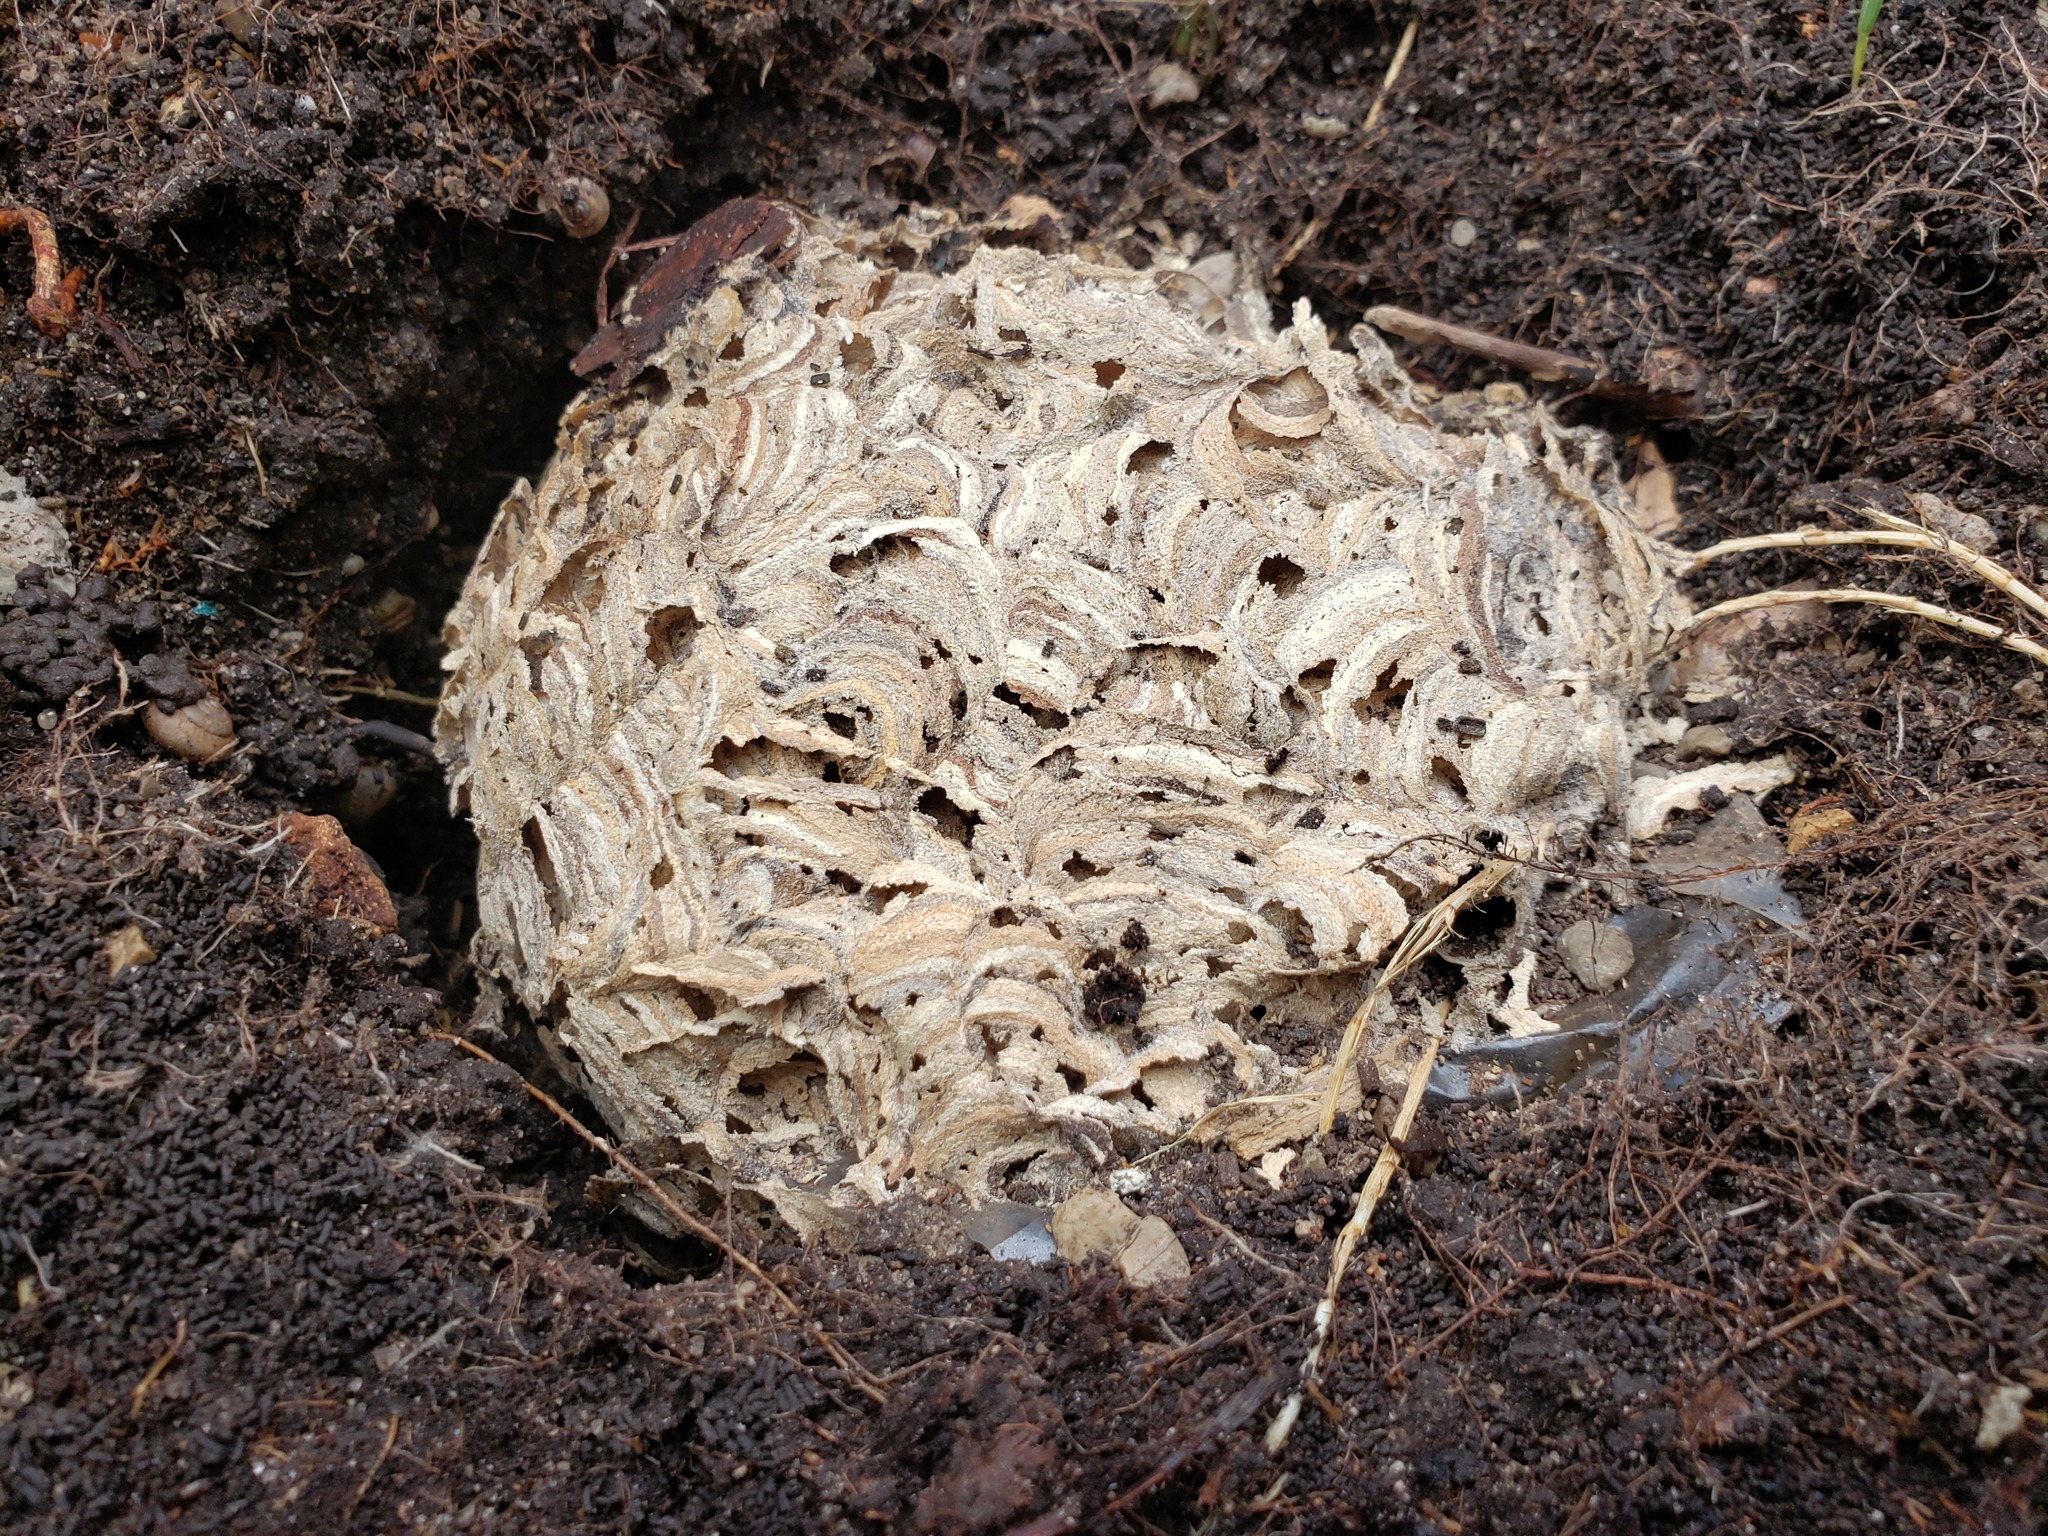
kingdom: Animalia
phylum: Arthropoda
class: Insecta
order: Hymenoptera
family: Vespidae
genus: Vespula
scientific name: Vespula
